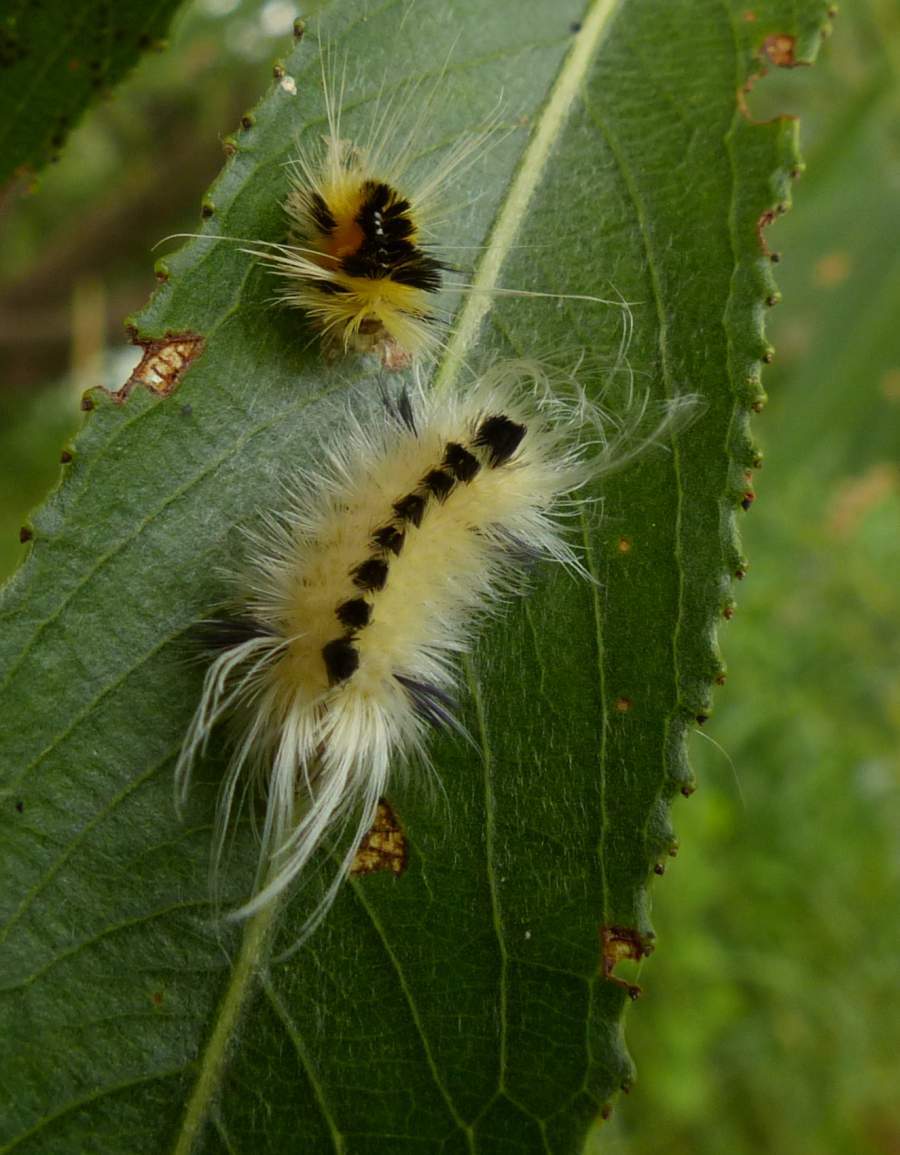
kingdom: Animalia
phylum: Arthropoda
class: Insecta
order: Lepidoptera
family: Erebidae
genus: Lophocampa
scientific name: Lophocampa maculata
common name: Spotted tussock moth
